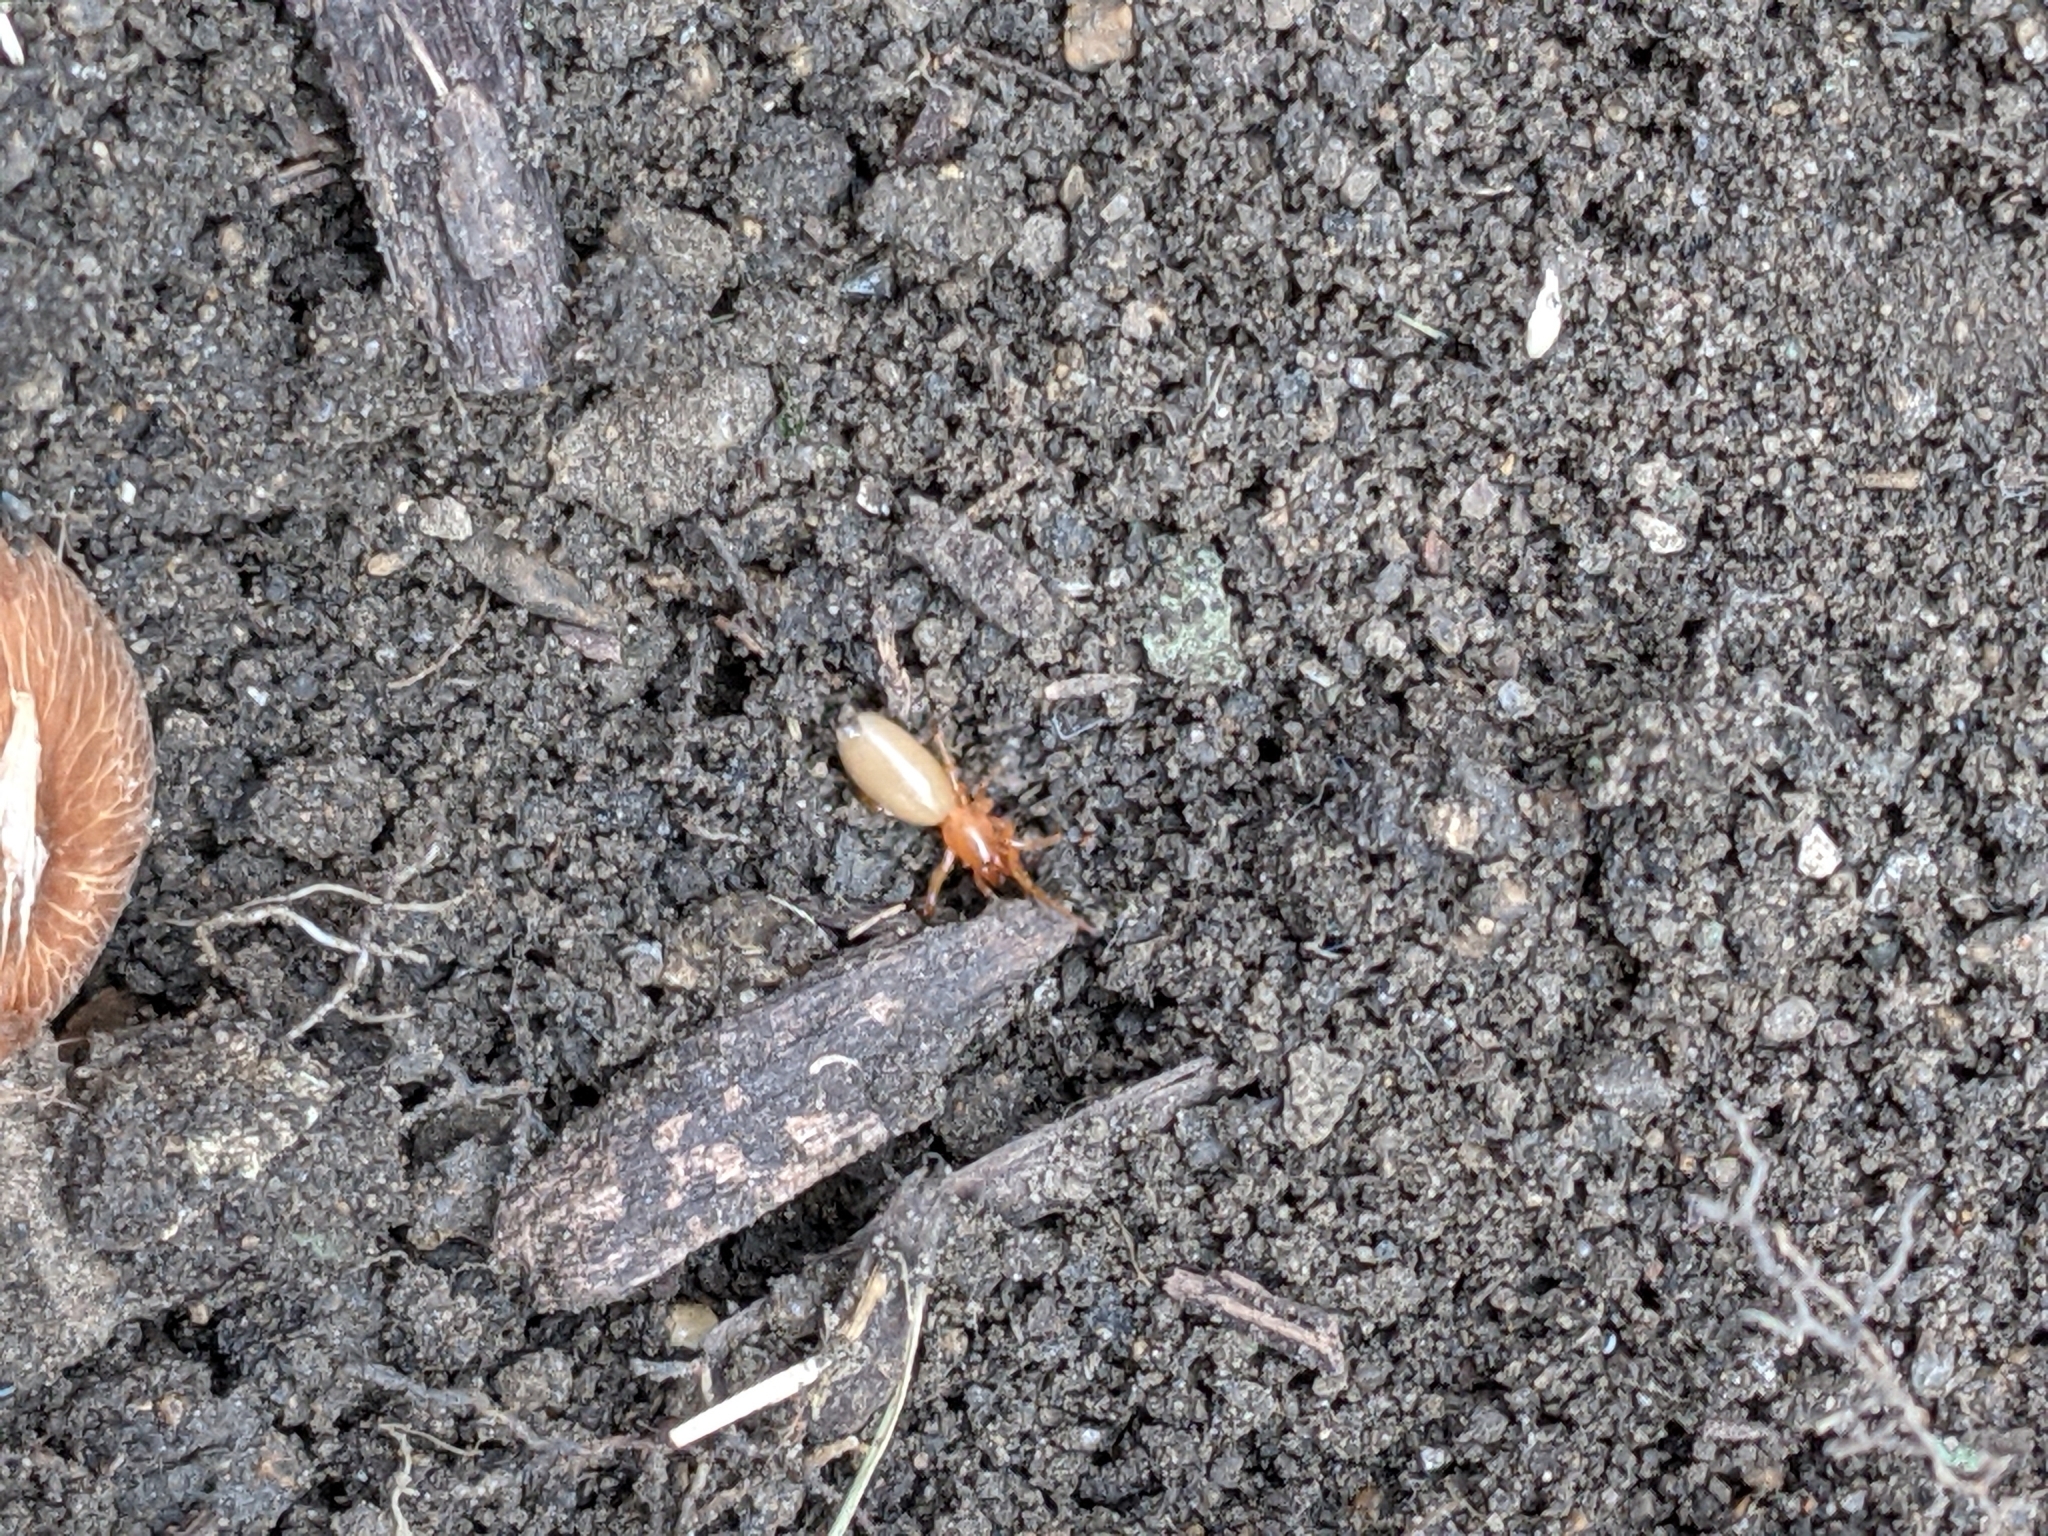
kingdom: Animalia
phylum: Arthropoda
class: Arachnida
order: Araneae
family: Dysderidae
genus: Dysdera
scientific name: Dysdera crocata
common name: Woodlouse spider
